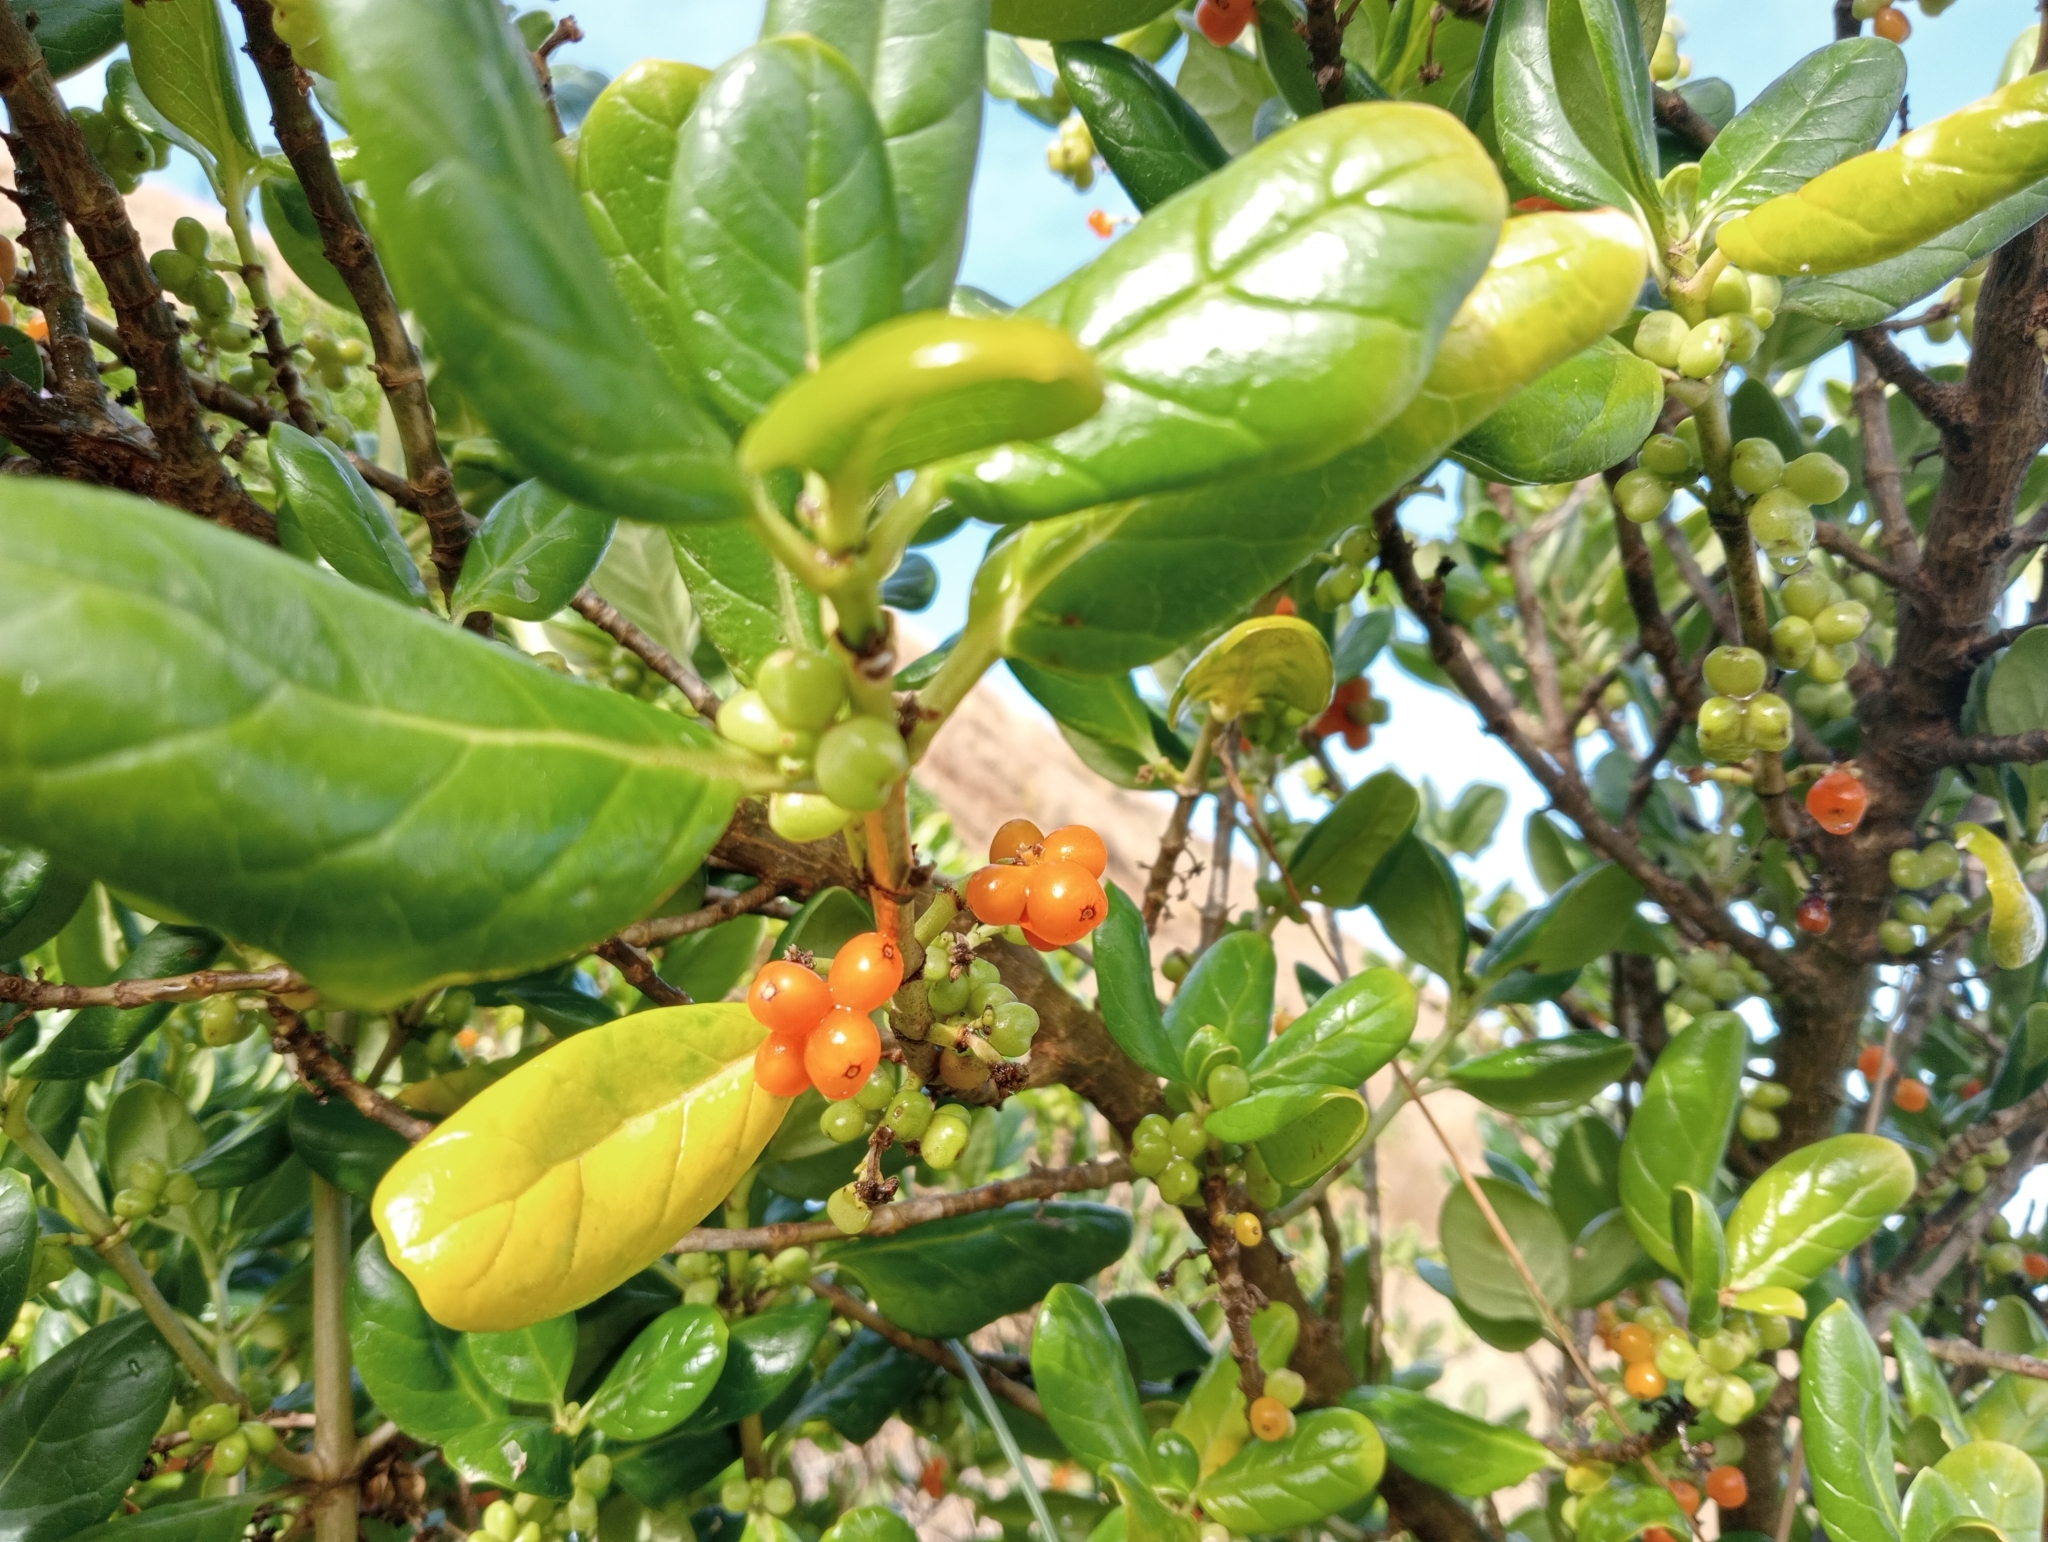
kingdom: Plantae
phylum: Tracheophyta
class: Magnoliopsida
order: Gentianales
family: Rubiaceae
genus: Coprosma
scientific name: Coprosma repens
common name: Tree bedstraw
